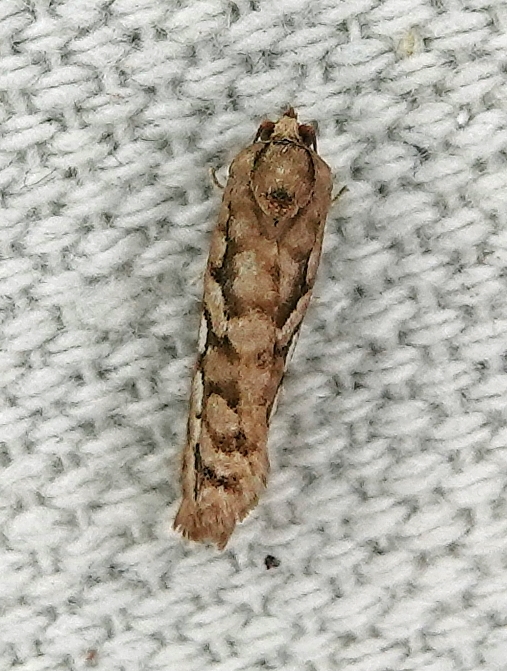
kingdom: Animalia
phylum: Arthropoda
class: Insecta
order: Lepidoptera
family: Tortricidae
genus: Diedra
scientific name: Diedra cockerellana
